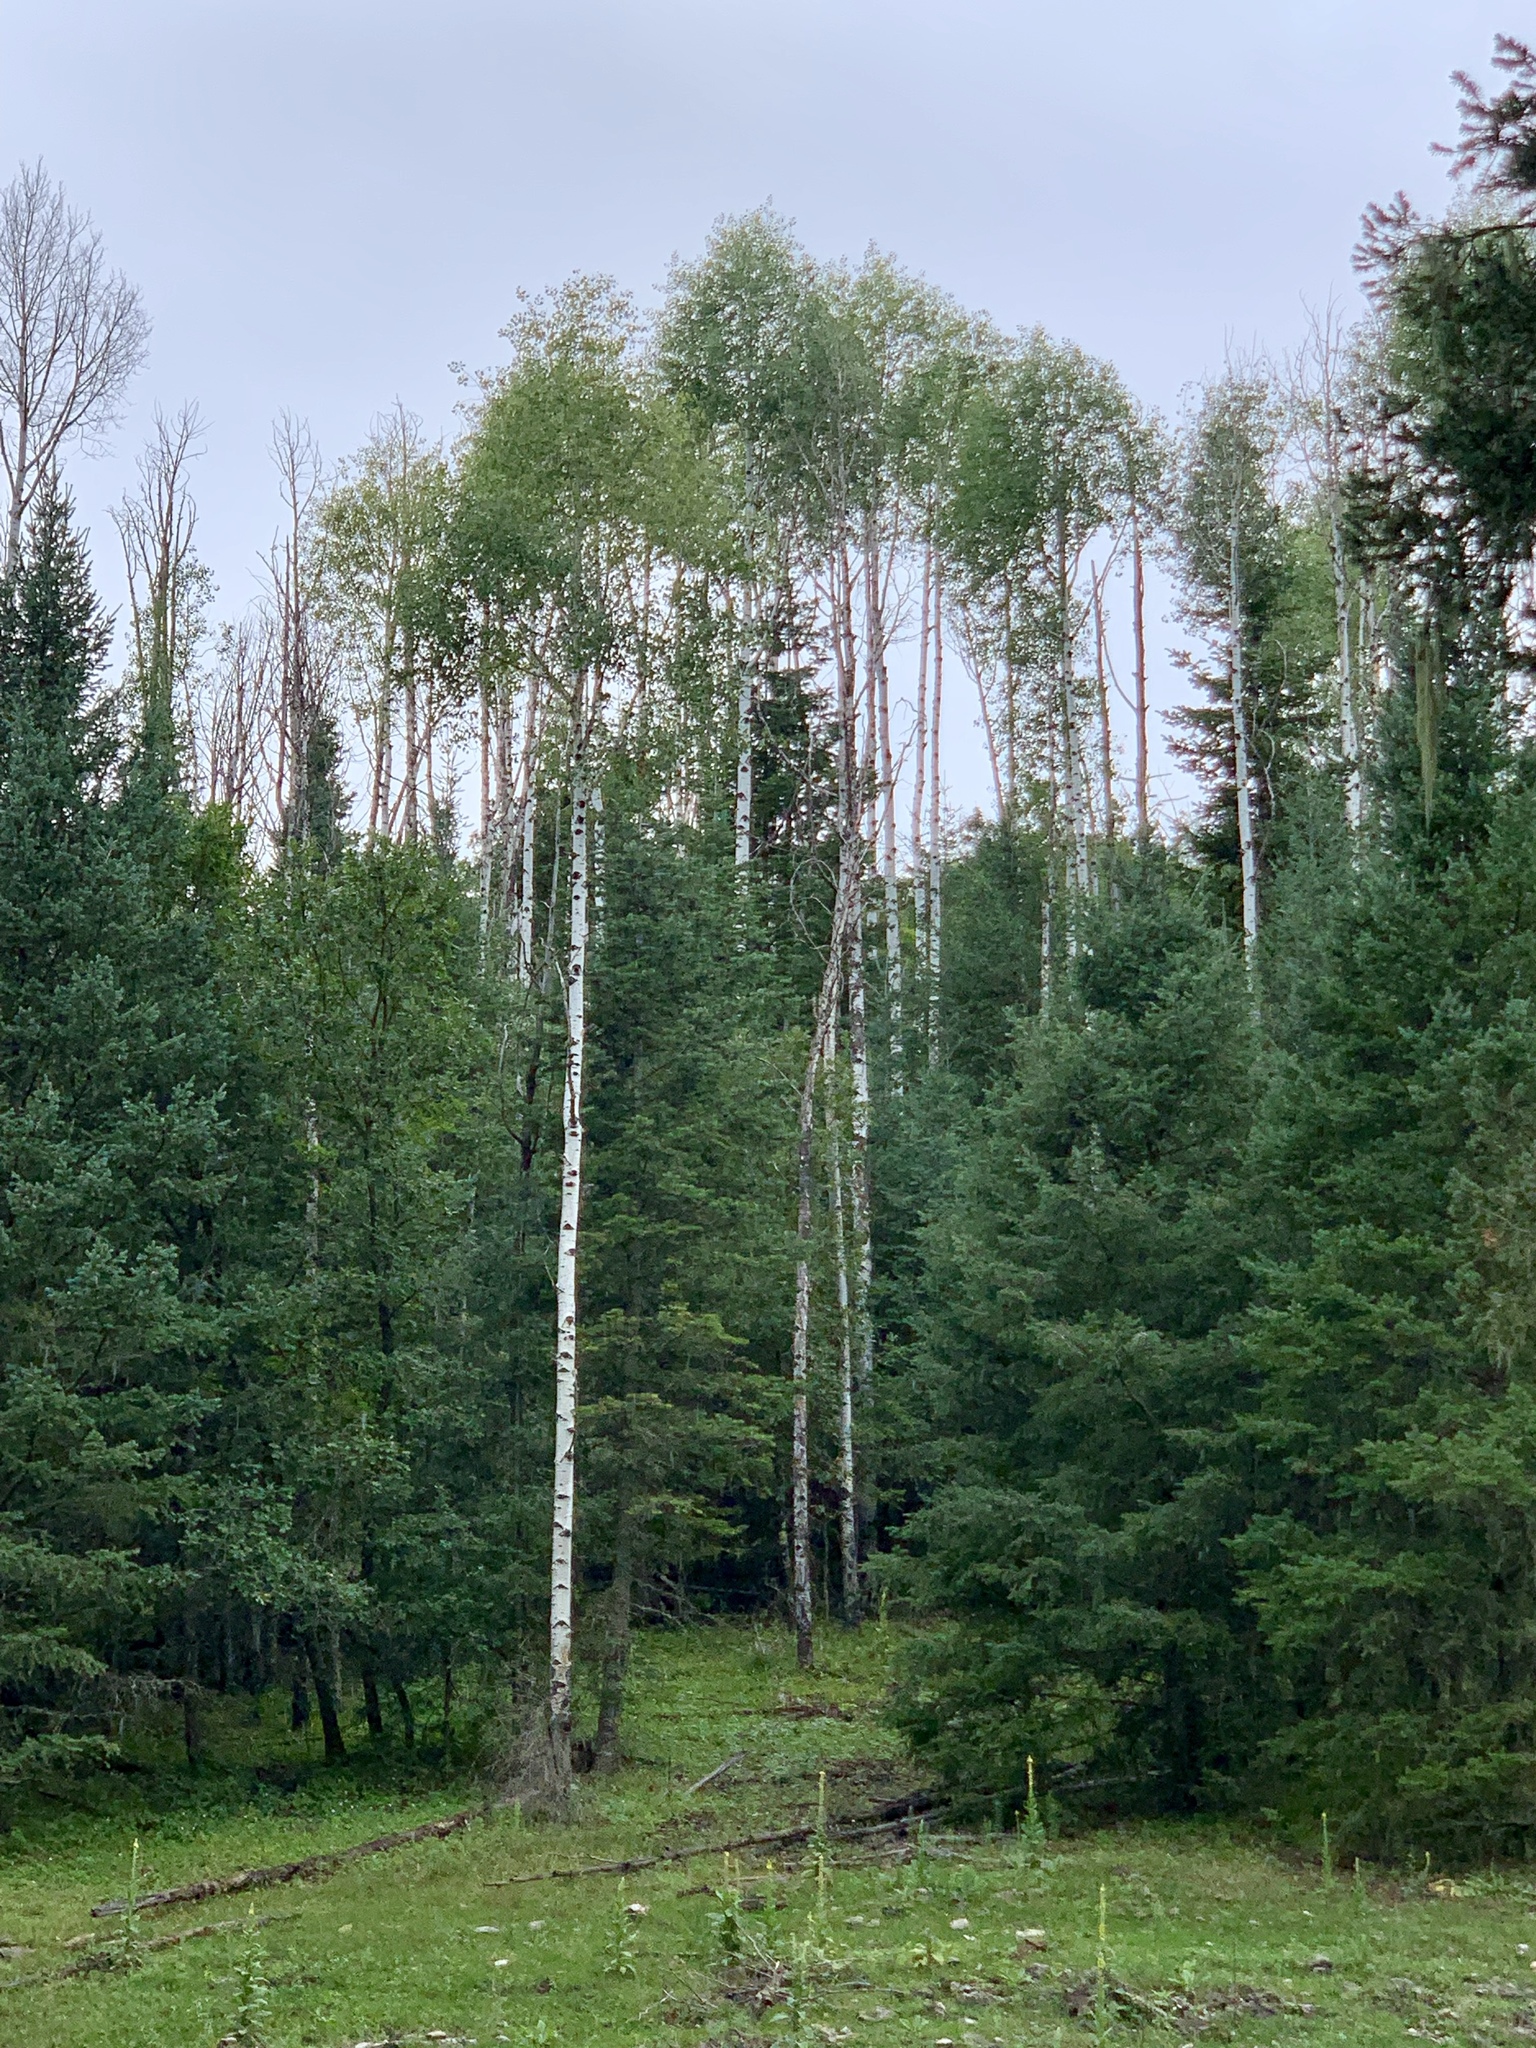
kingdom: Plantae
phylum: Tracheophyta
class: Magnoliopsida
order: Malpighiales
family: Salicaceae
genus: Populus
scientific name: Populus tremuloides
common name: Quaking aspen
